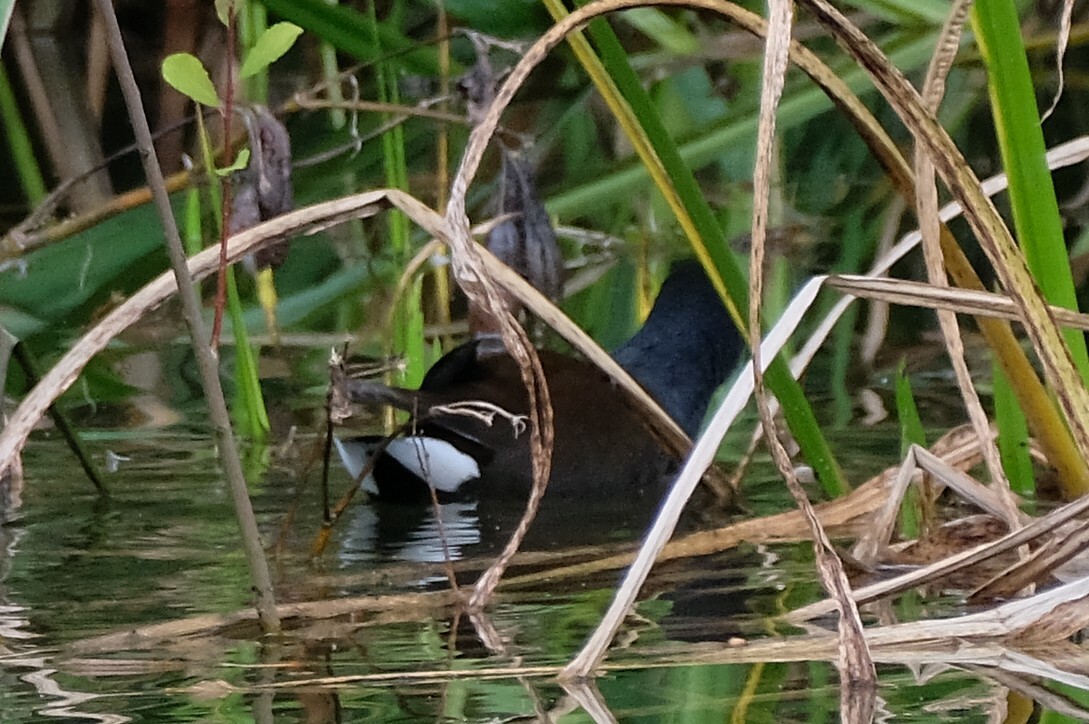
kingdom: Animalia
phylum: Chordata
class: Aves
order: Gruiformes
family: Rallidae
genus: Gallinula
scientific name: Gallinula chloropus
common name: Common moorhen
